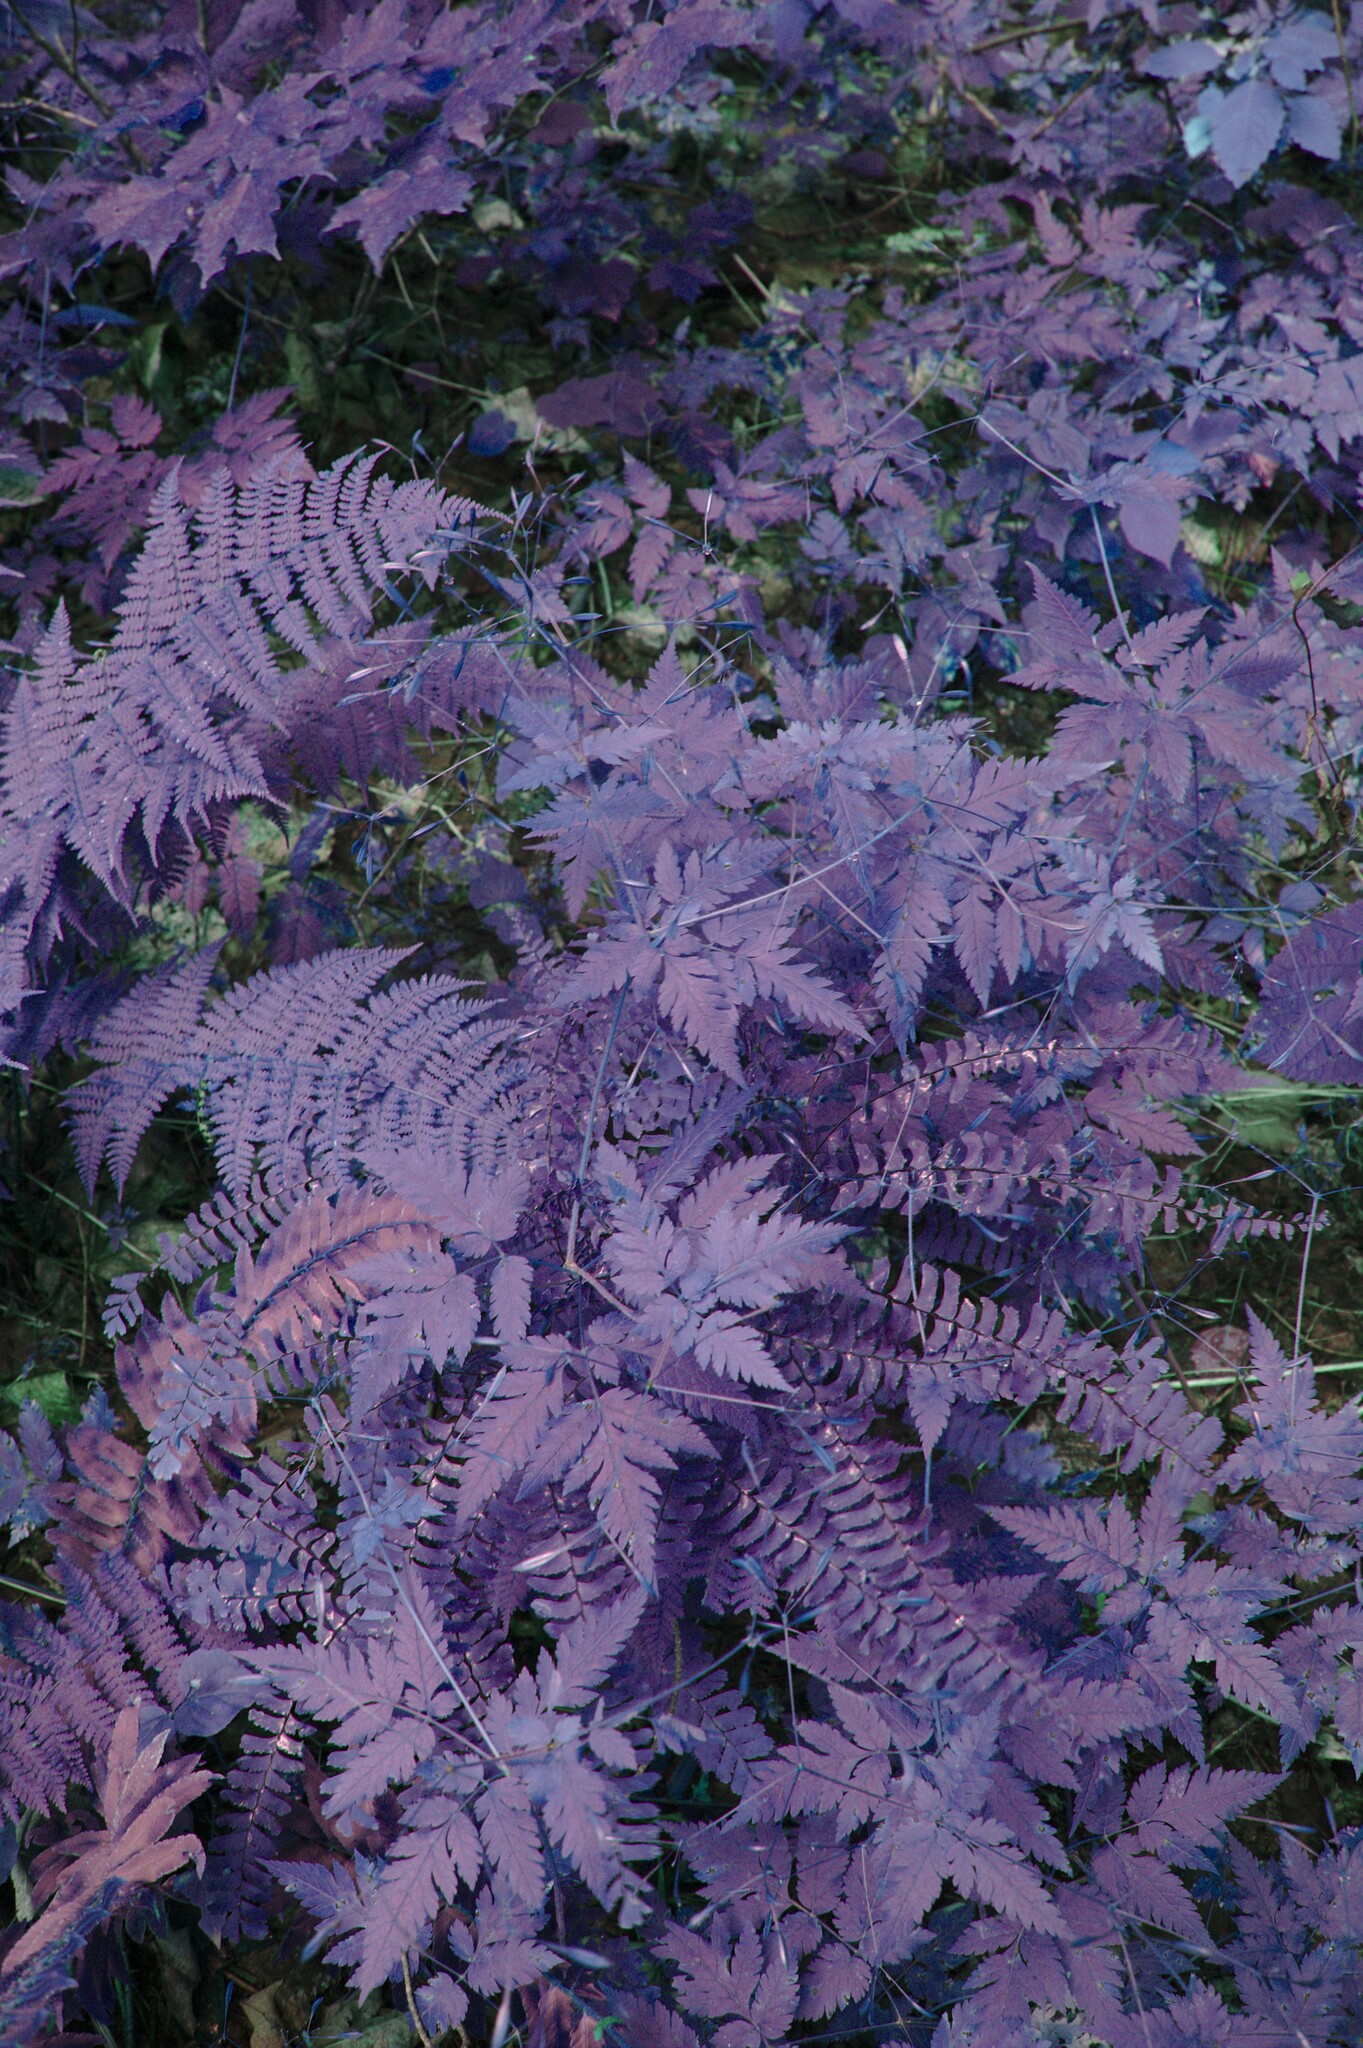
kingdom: Plantae
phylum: Tracheophyta
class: Magnoliopsida
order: Apiales
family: Apiaceae
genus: Osmorhiza
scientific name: Osmorhiza claytonii
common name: Hairy sweet cicely
